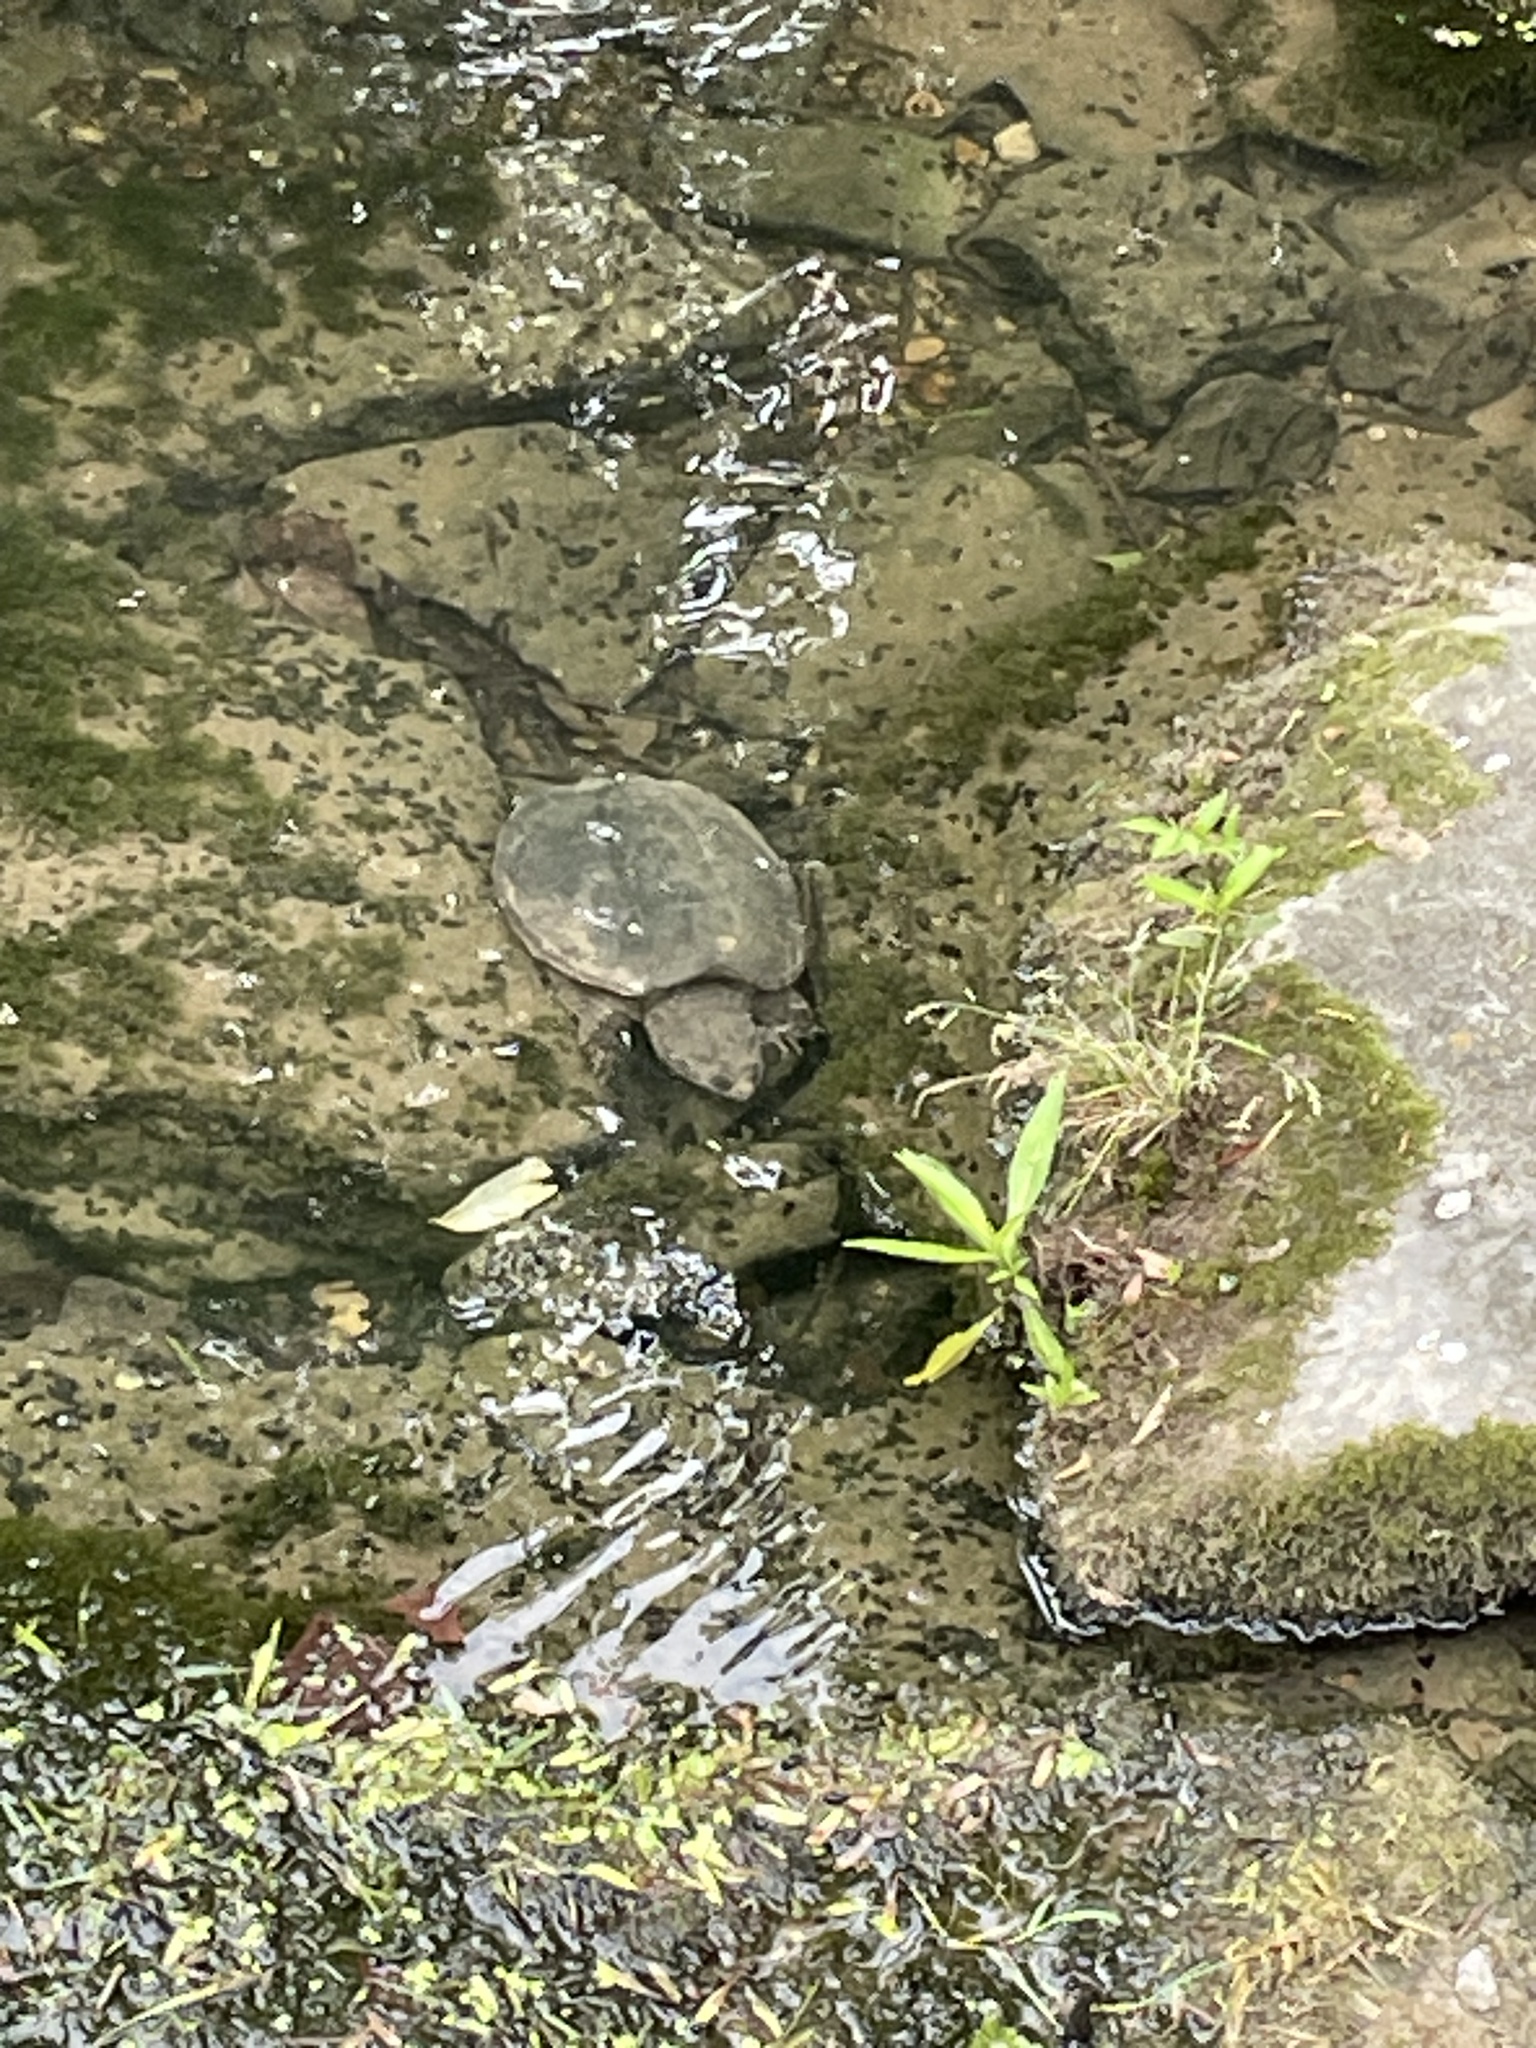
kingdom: Animalia
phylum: Chordata
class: Testudines
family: Chelydridae
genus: Chelydra
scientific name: Chelydra serpentina
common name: Common snapping turtle
